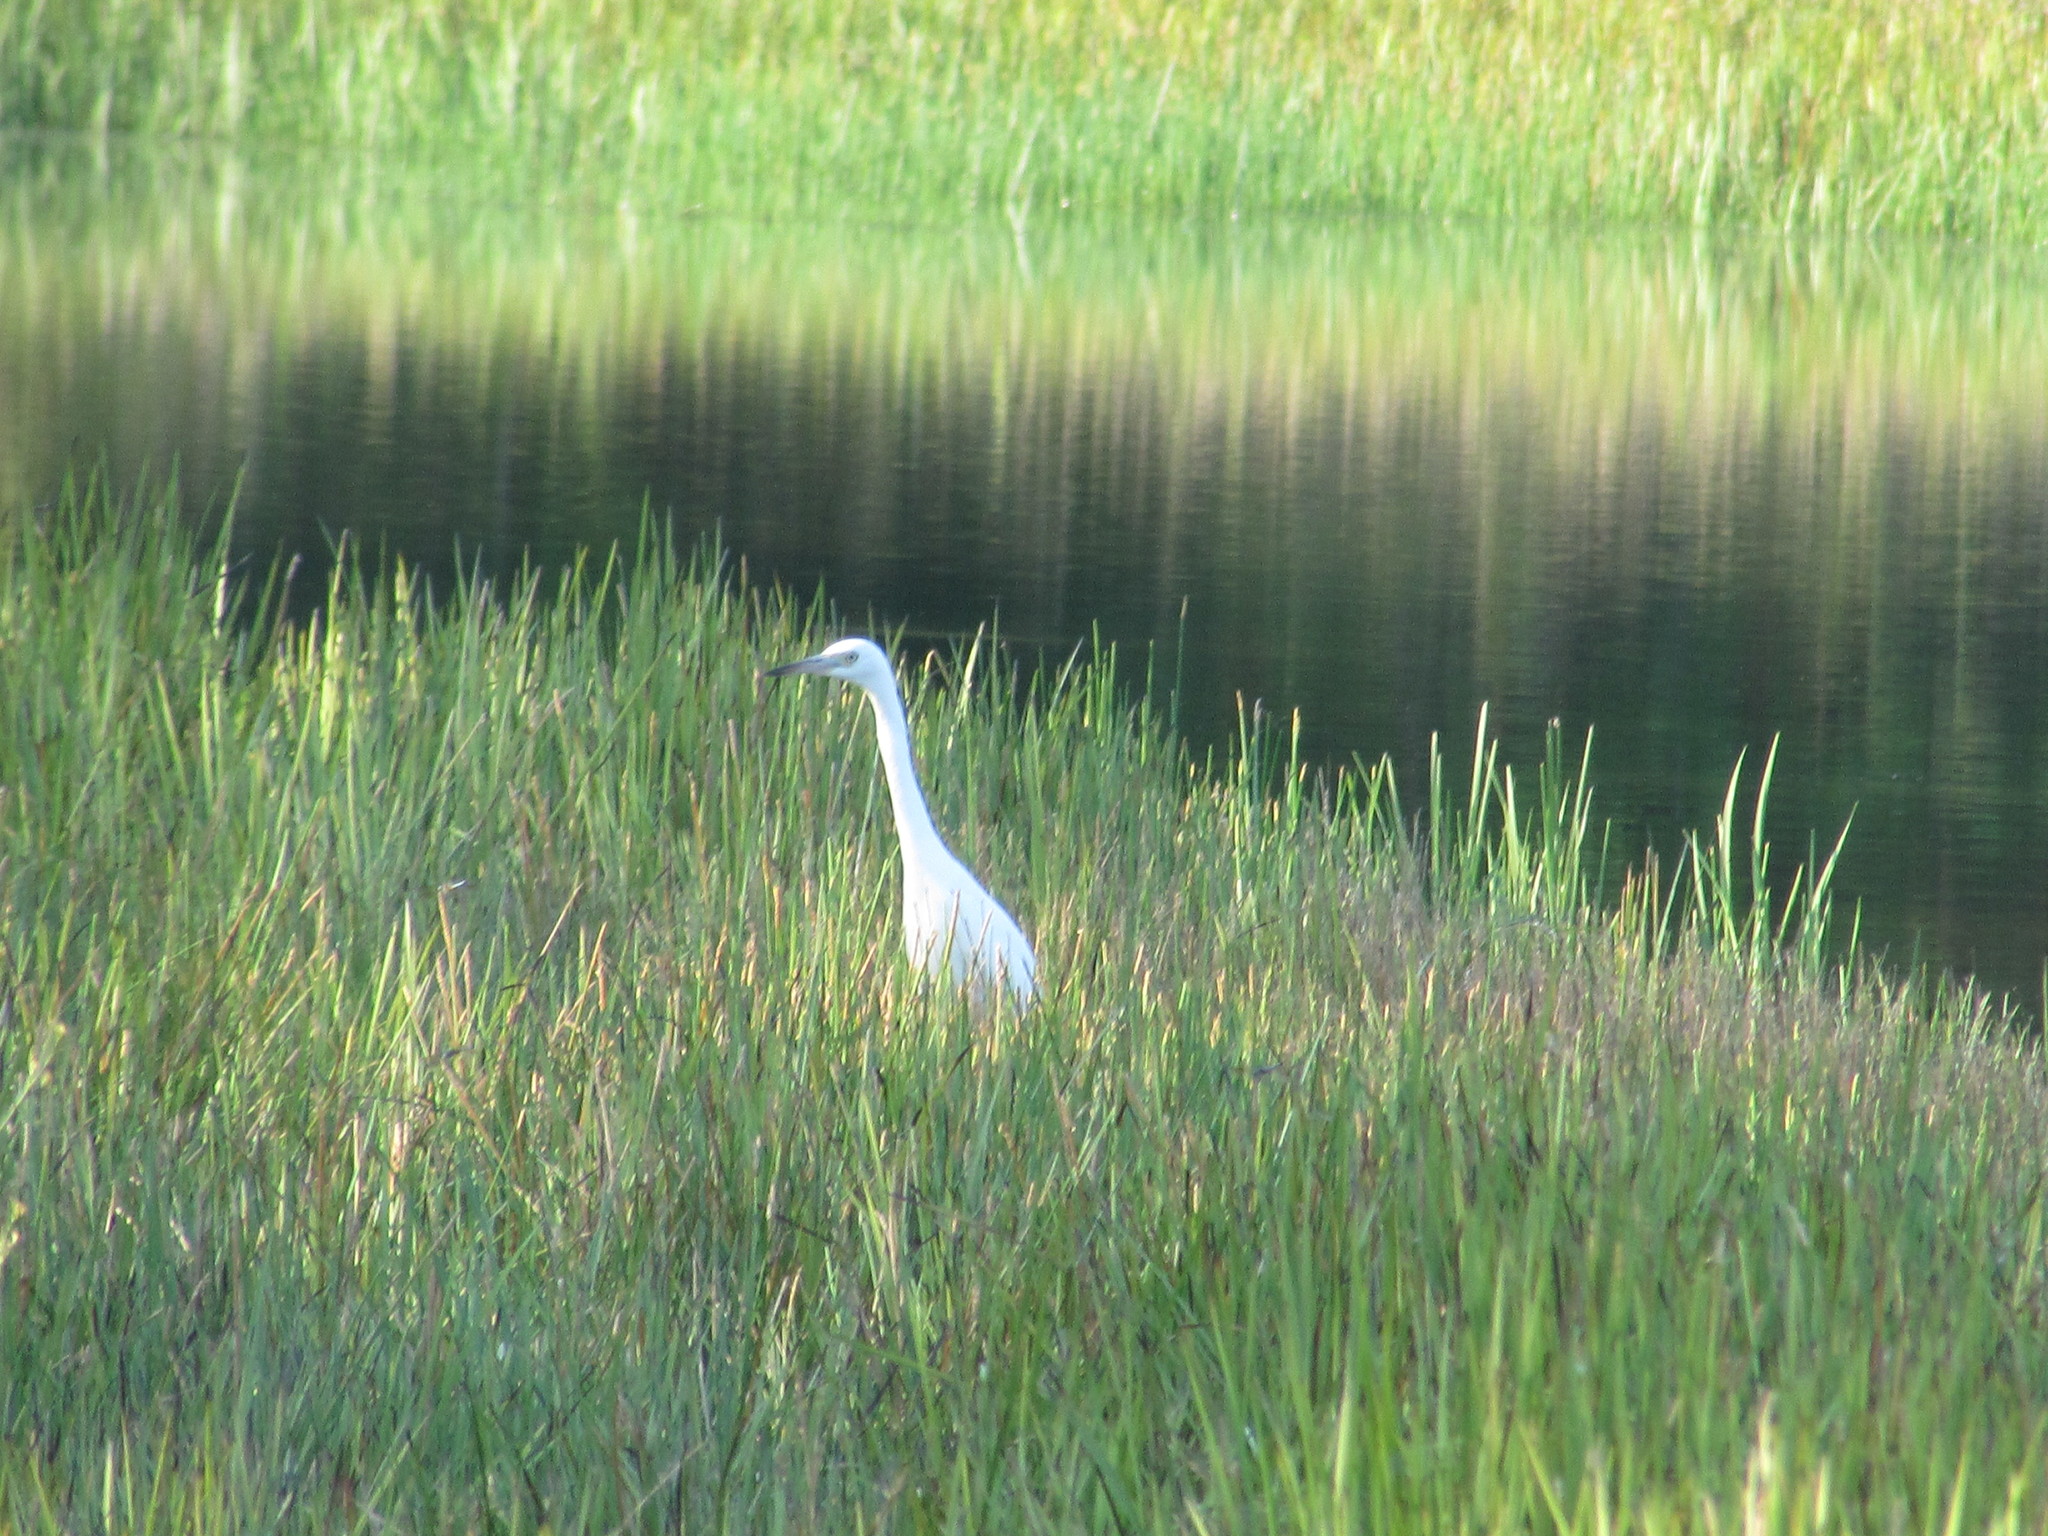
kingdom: Animalia
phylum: Chordata
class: Aves
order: Pelecaniformes
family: Ardeidae
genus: Egretta
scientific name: Egretta caerulea
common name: Little blue heron
